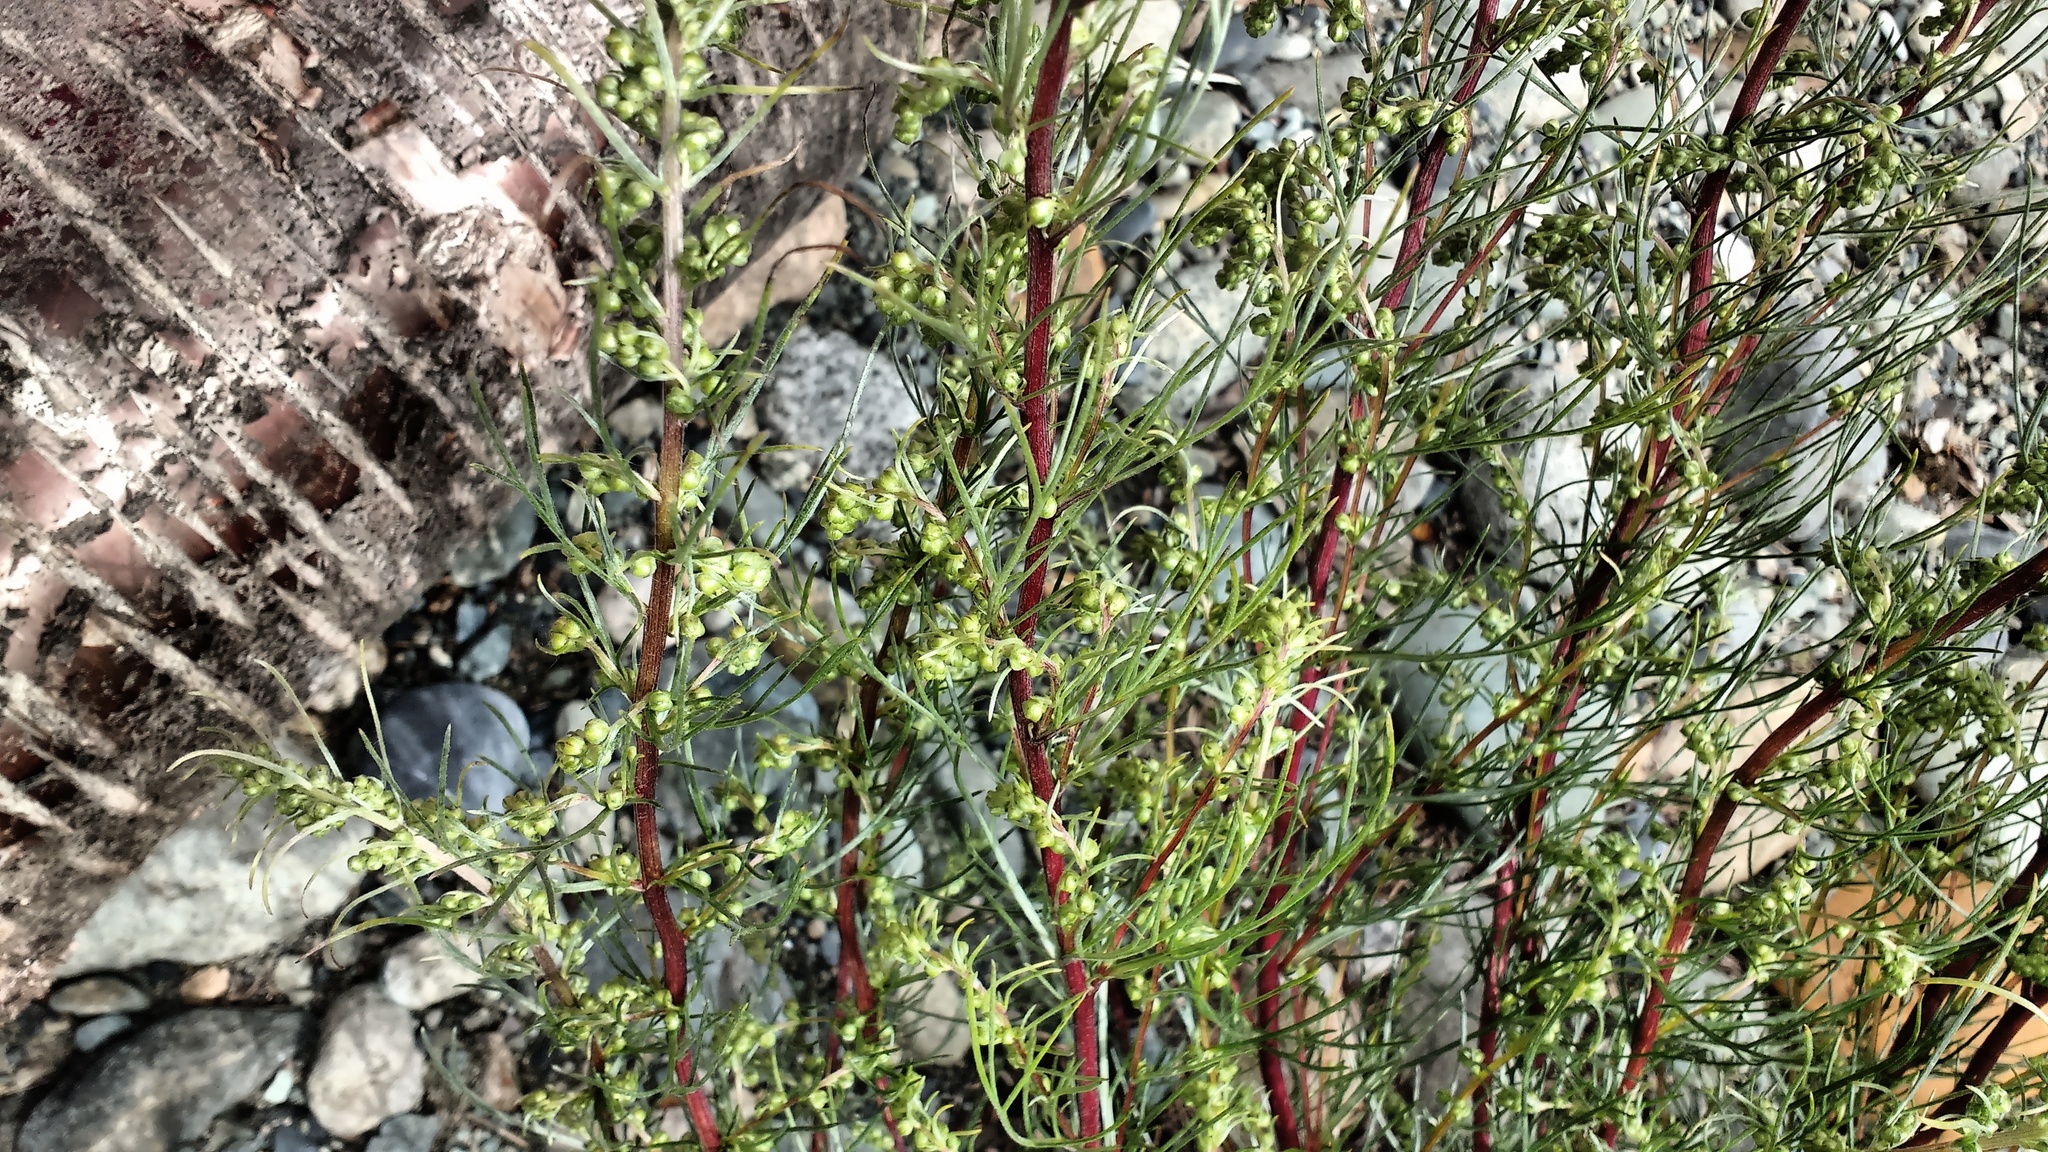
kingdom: Plantae
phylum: Tracheophyta
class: Magnoliopsida
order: Asterales
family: Asteraceae
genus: Artemisia
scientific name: Artemisia campestris
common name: Field wormwood
